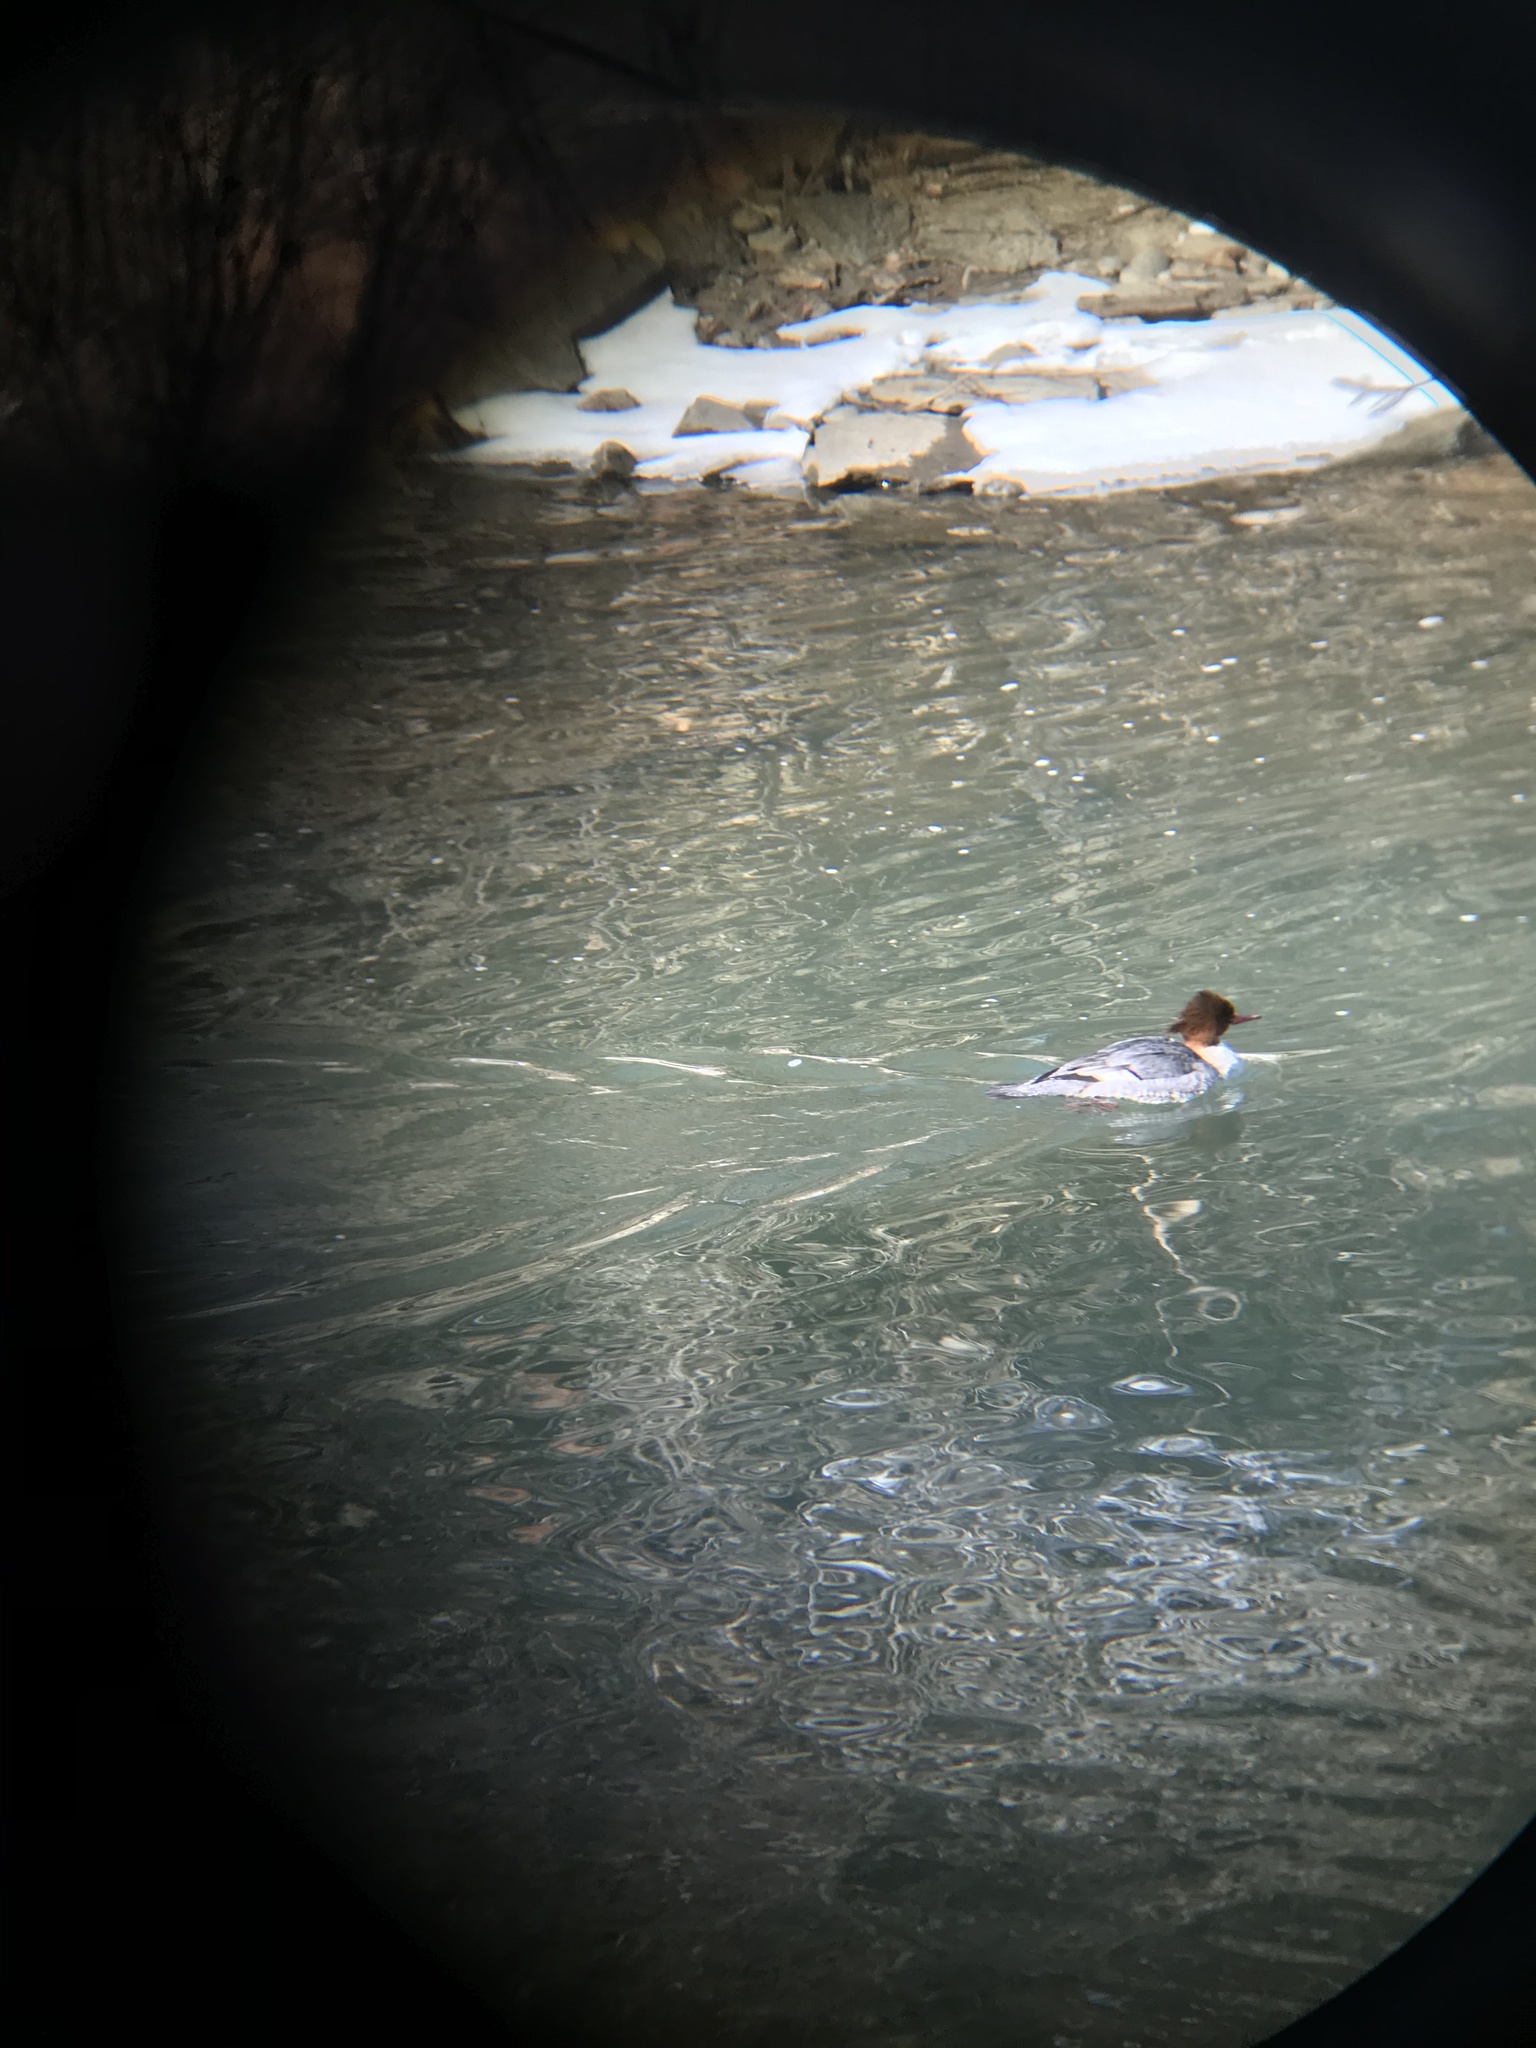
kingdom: Animalia
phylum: Chordata
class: Aves
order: Anseriformes
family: Anatidae
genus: Mergus
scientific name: Mergus merganser
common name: Common merganser
